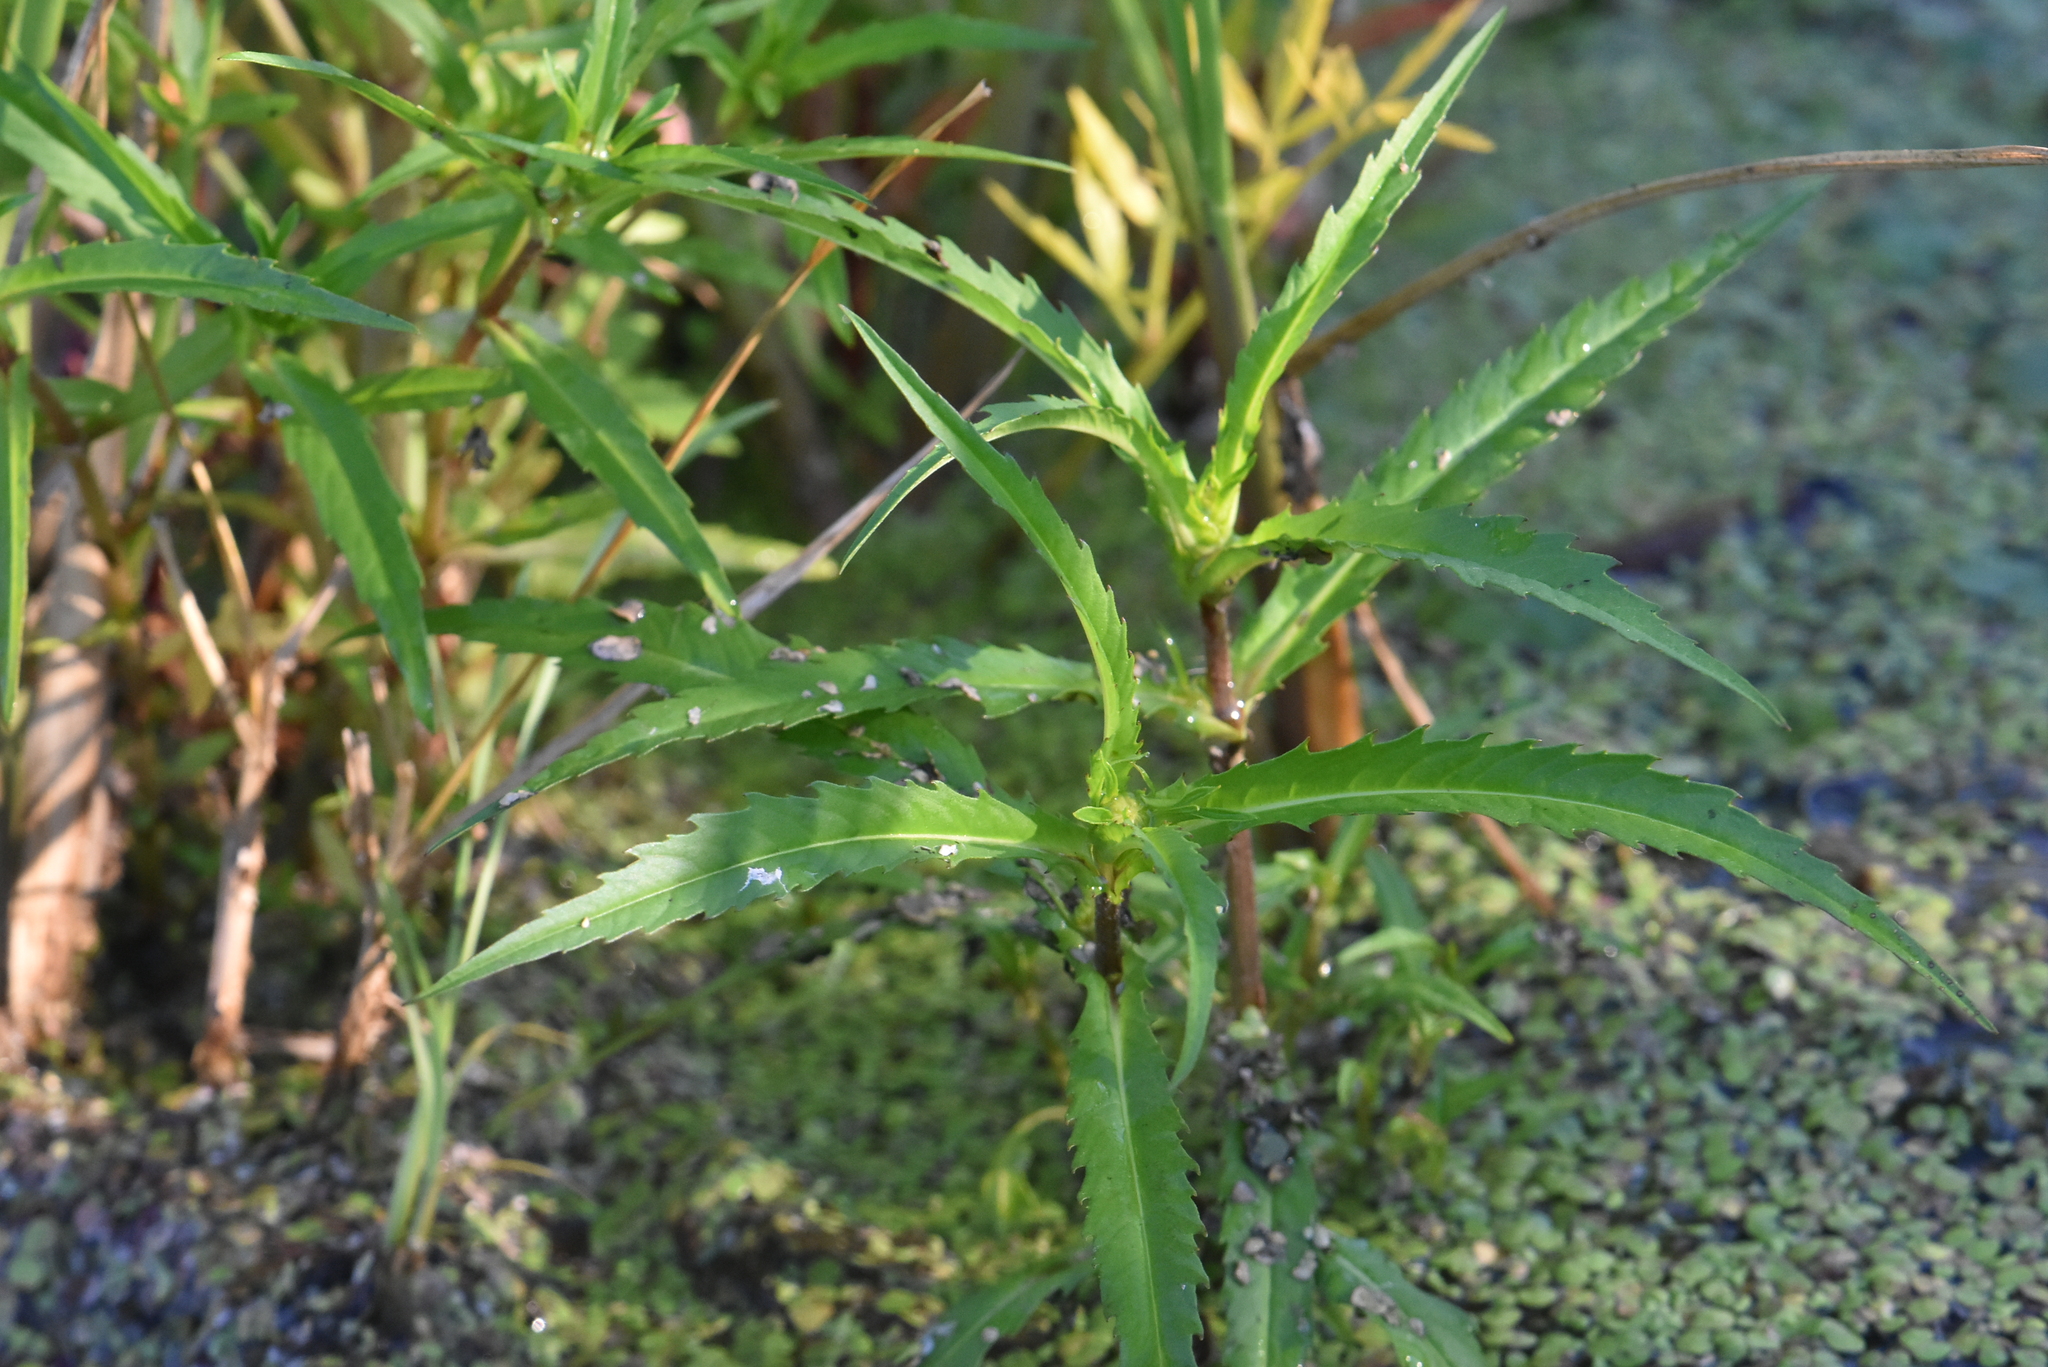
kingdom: Plantae
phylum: Tracheophyta
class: Magnoliopsida
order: Asterales
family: Asteraceae
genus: Bidens
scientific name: Bidens cernua
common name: Nodding bur-marigold
